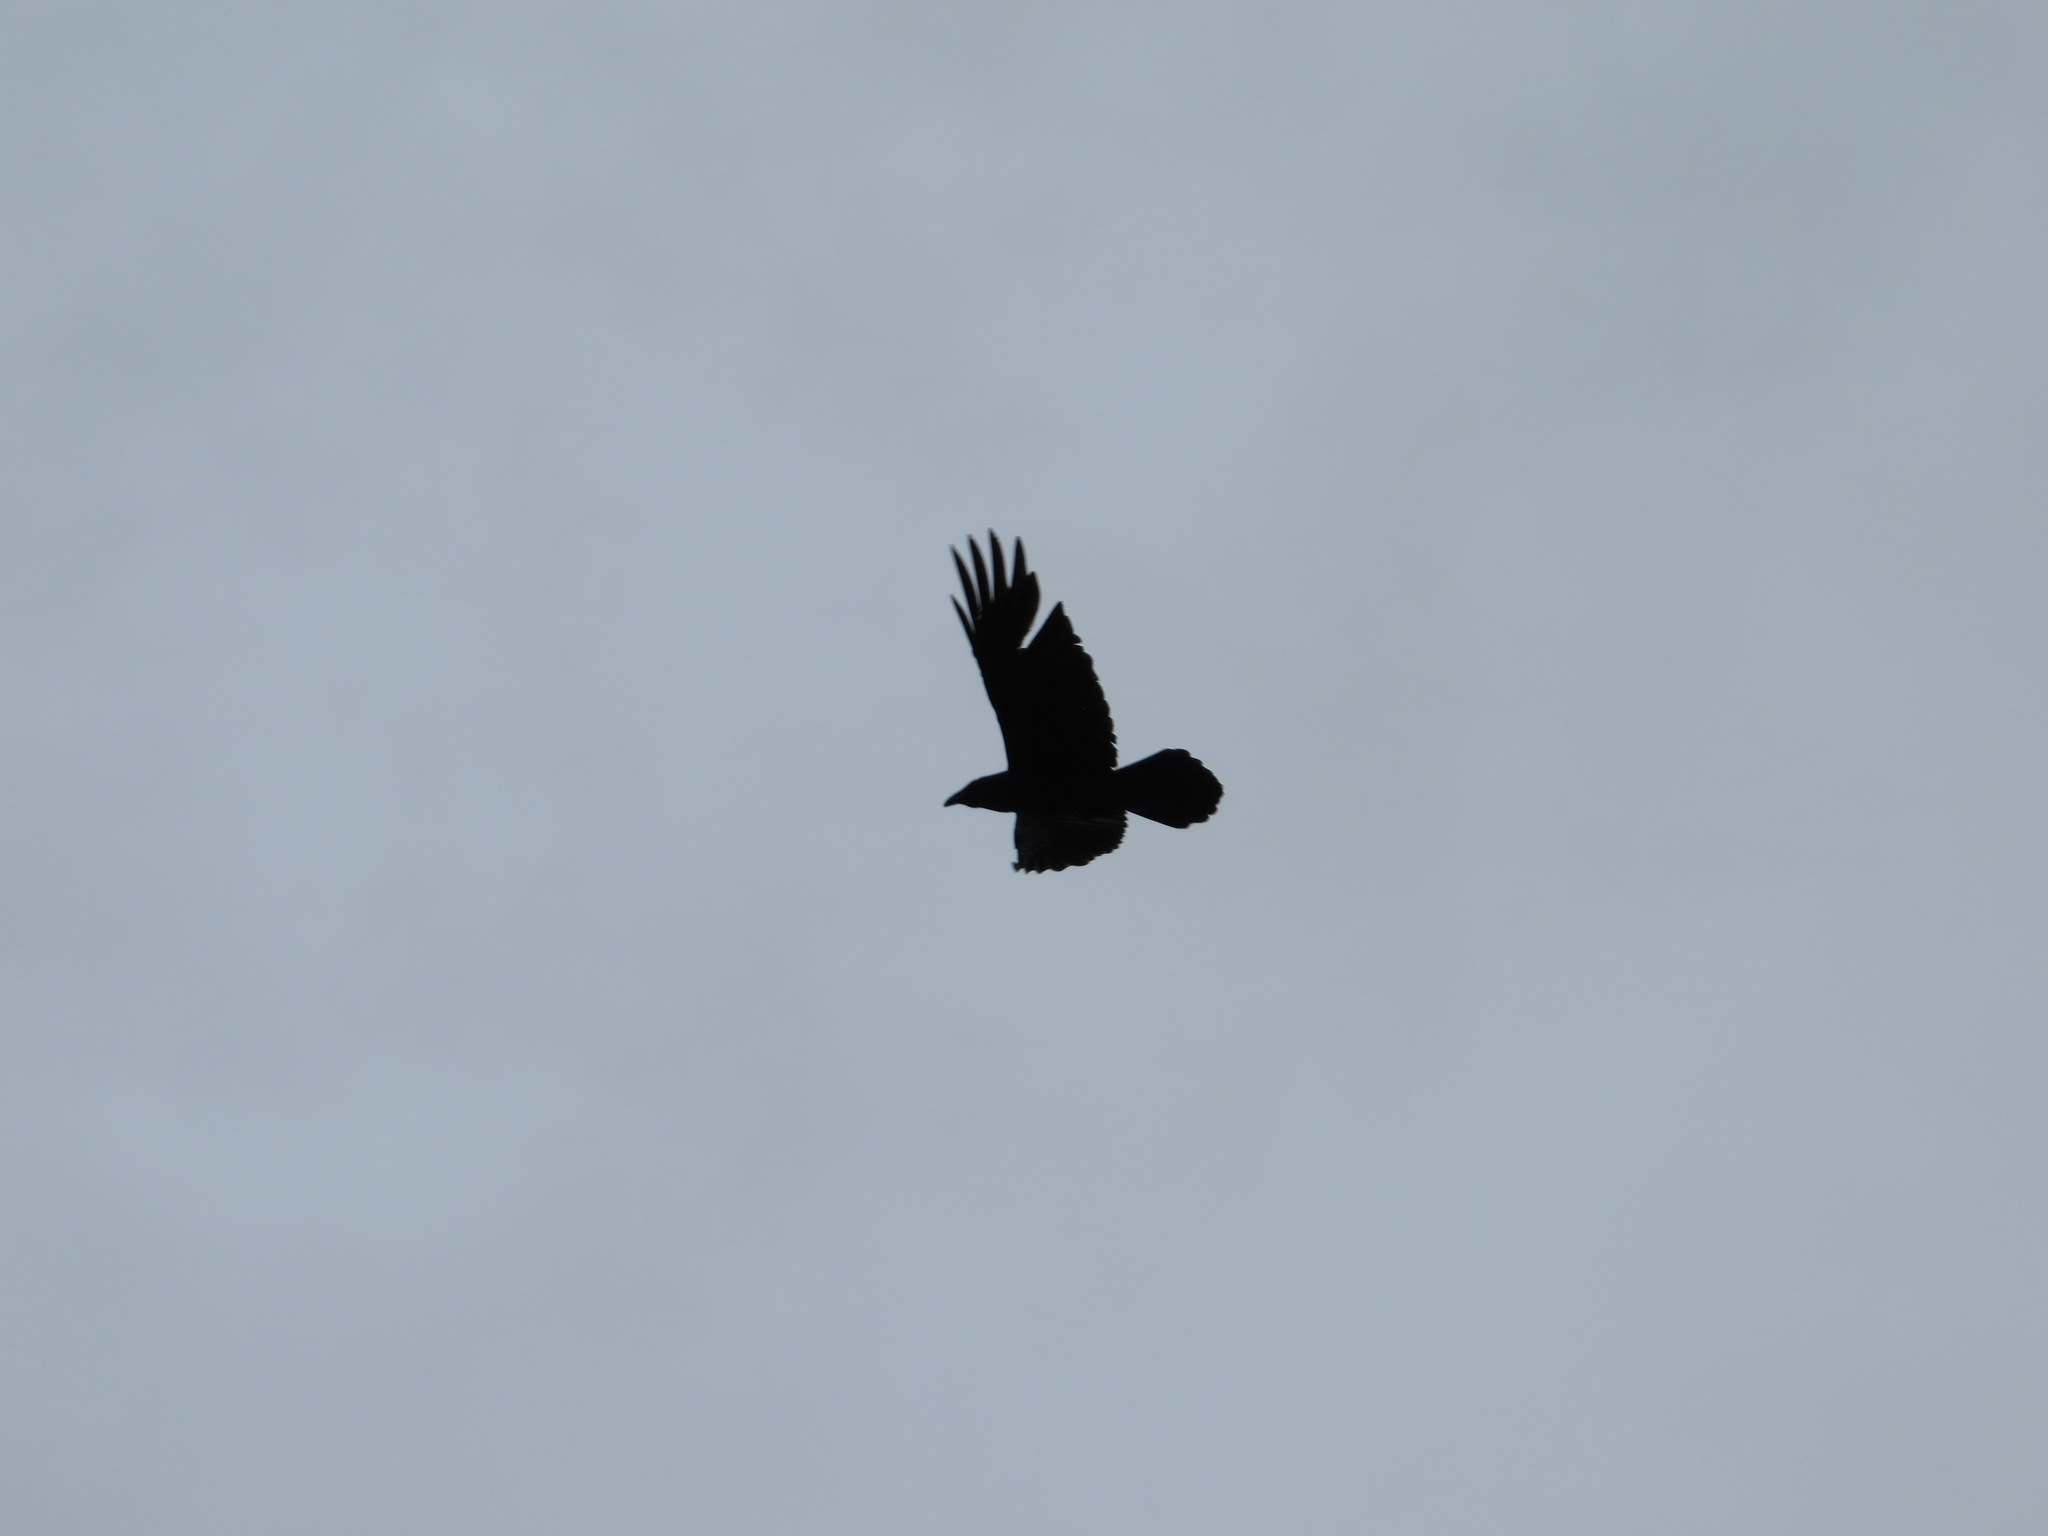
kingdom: Animalia
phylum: Chordata
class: Aves
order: Passeriformes
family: Corvidae
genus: Corvus
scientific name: Corvus corax
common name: Common raven
